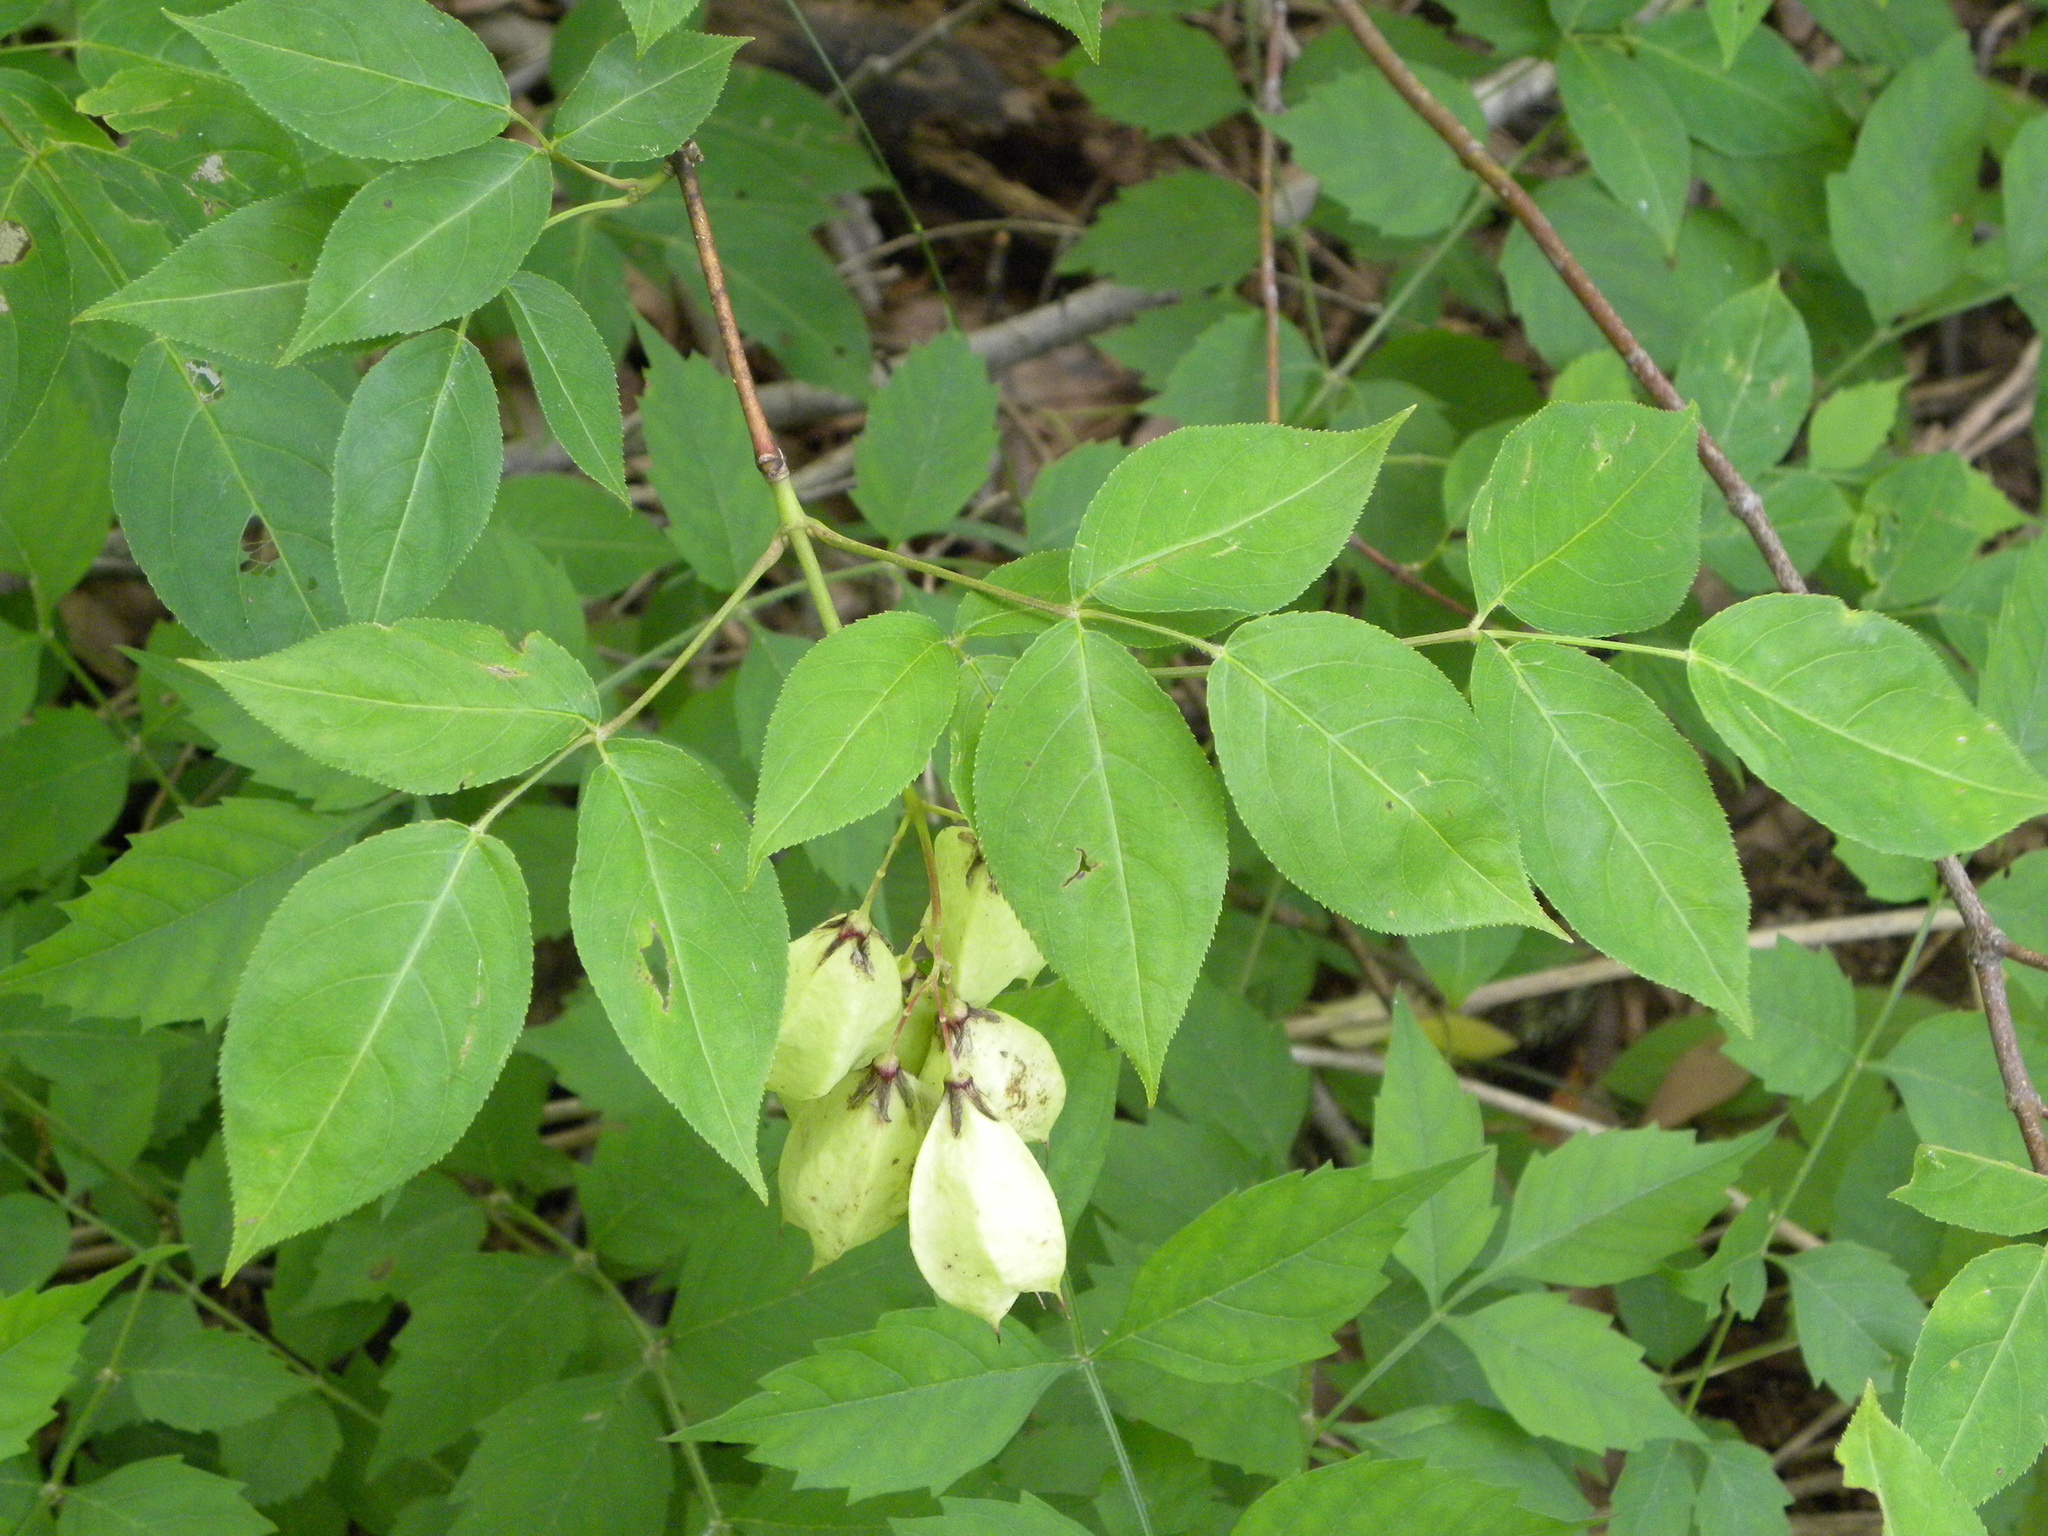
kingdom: Plantae
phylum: Tracheophyta
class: Magnoliopsida
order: Crossosomatales
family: Staphyleaceae
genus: Staphylea
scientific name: Staphylea trifolia
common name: American bladdernut
